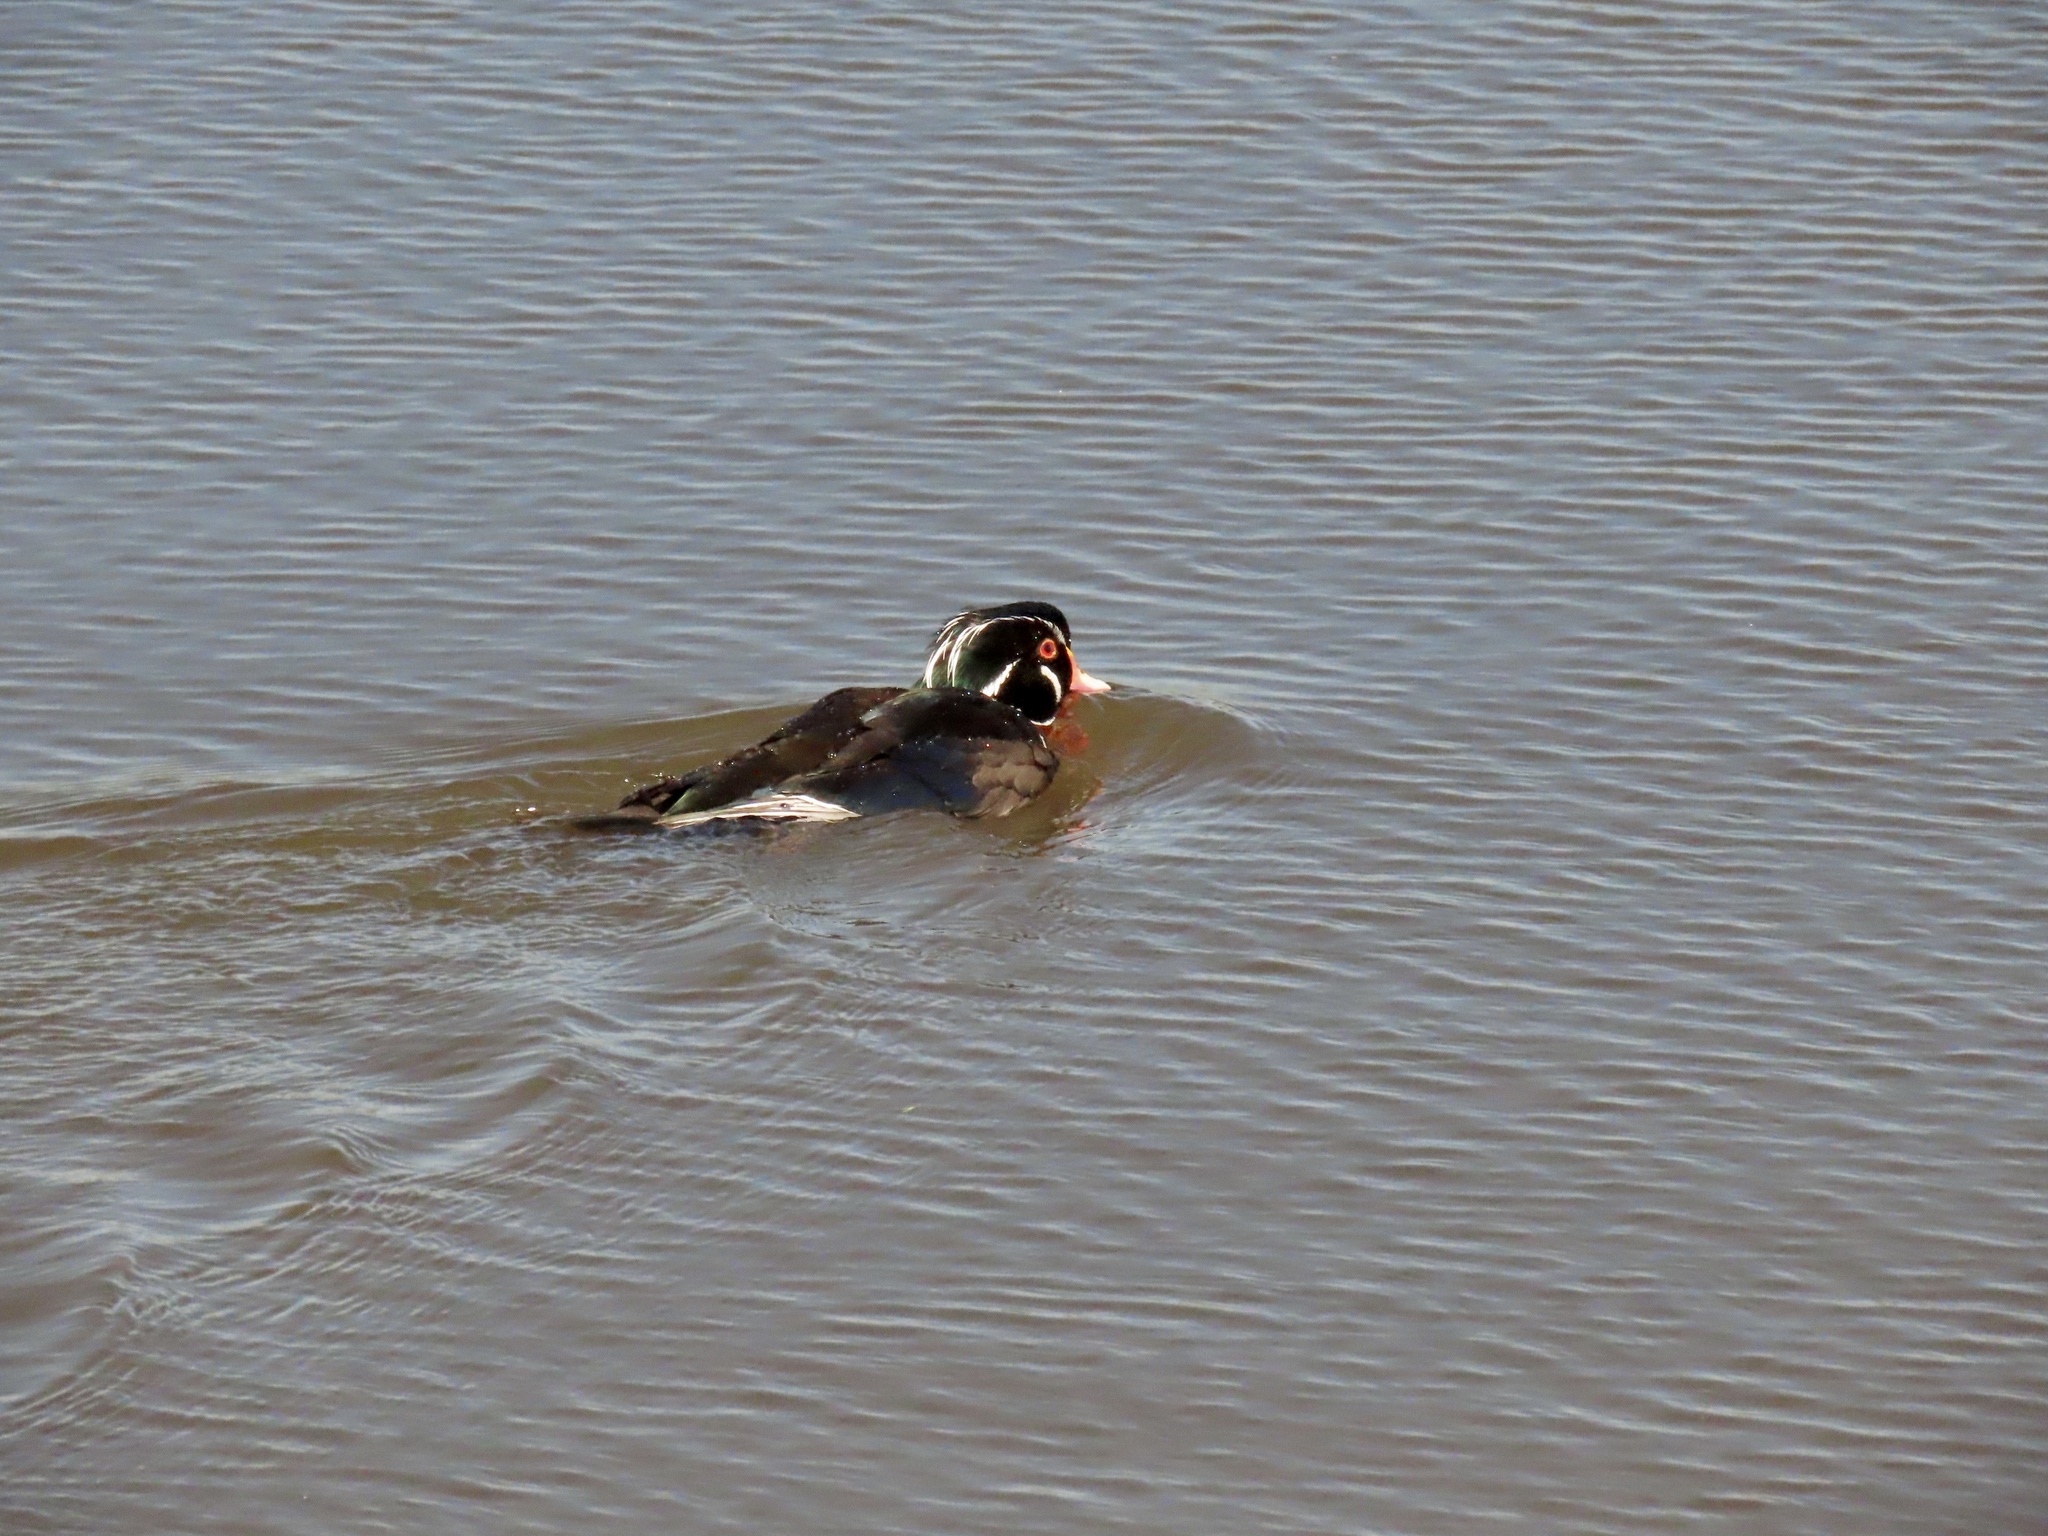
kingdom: Animalia
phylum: Chordata
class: Aves
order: Anseriformes
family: Anatidae
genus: Aix
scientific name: Aix sponsa
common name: Wood duck
